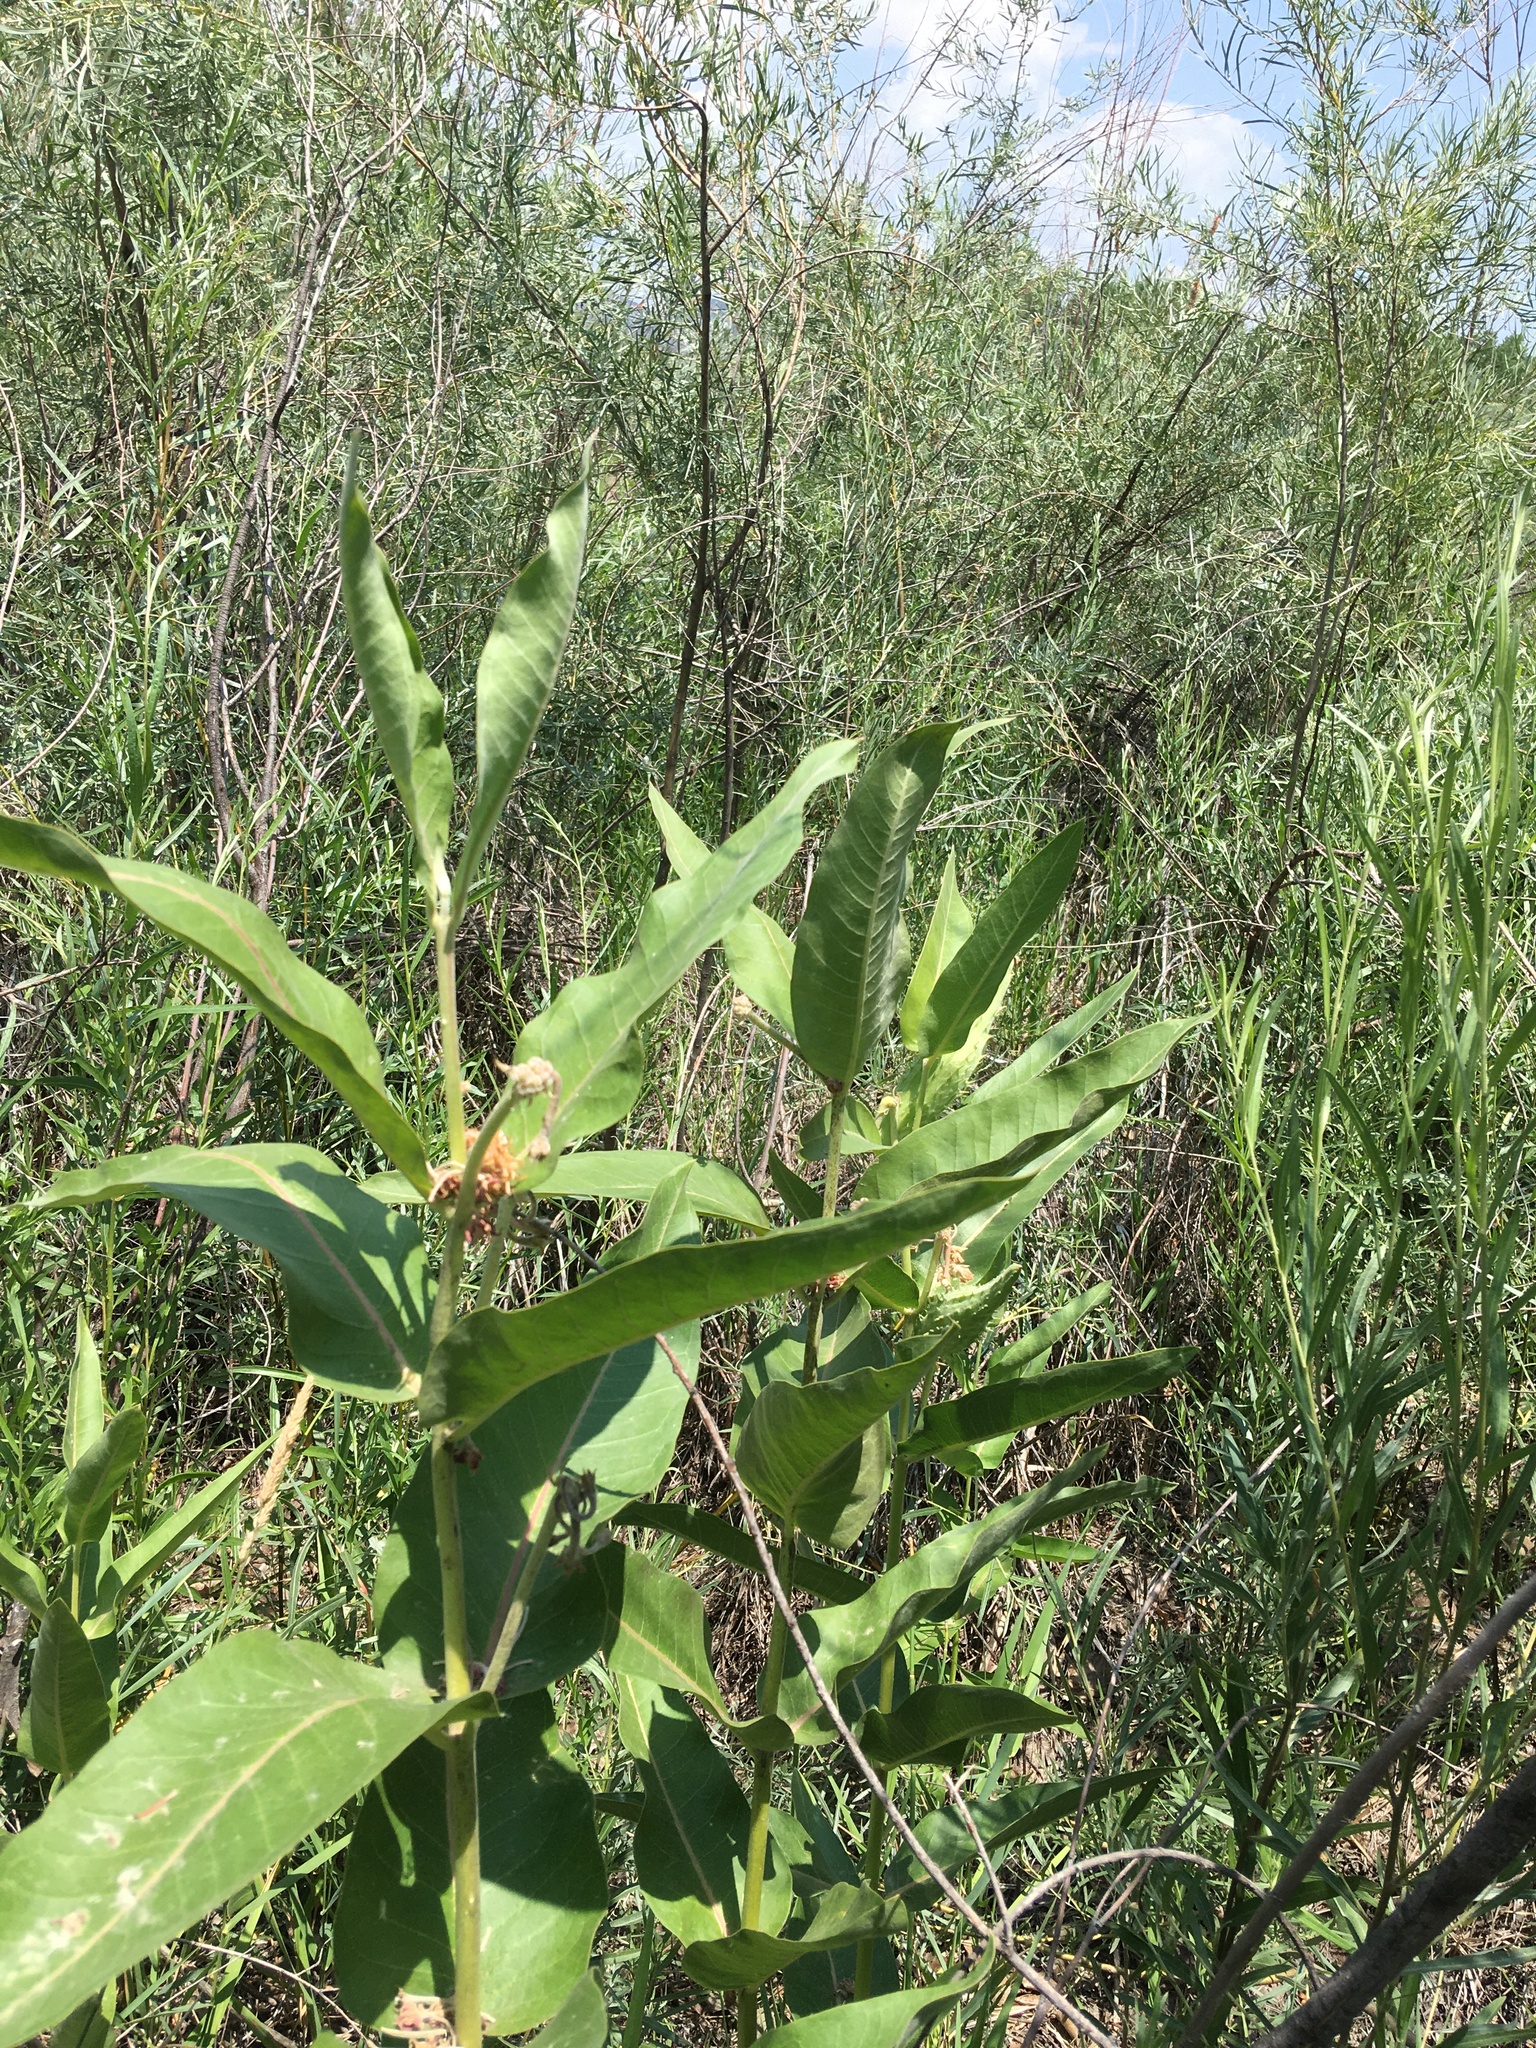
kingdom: Plantae
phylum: Tracheophyta
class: Magnoliopsida
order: Gentianales
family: Apocynaceae
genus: Asclepias
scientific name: Asclepias speciosa
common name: Showy milkweed
